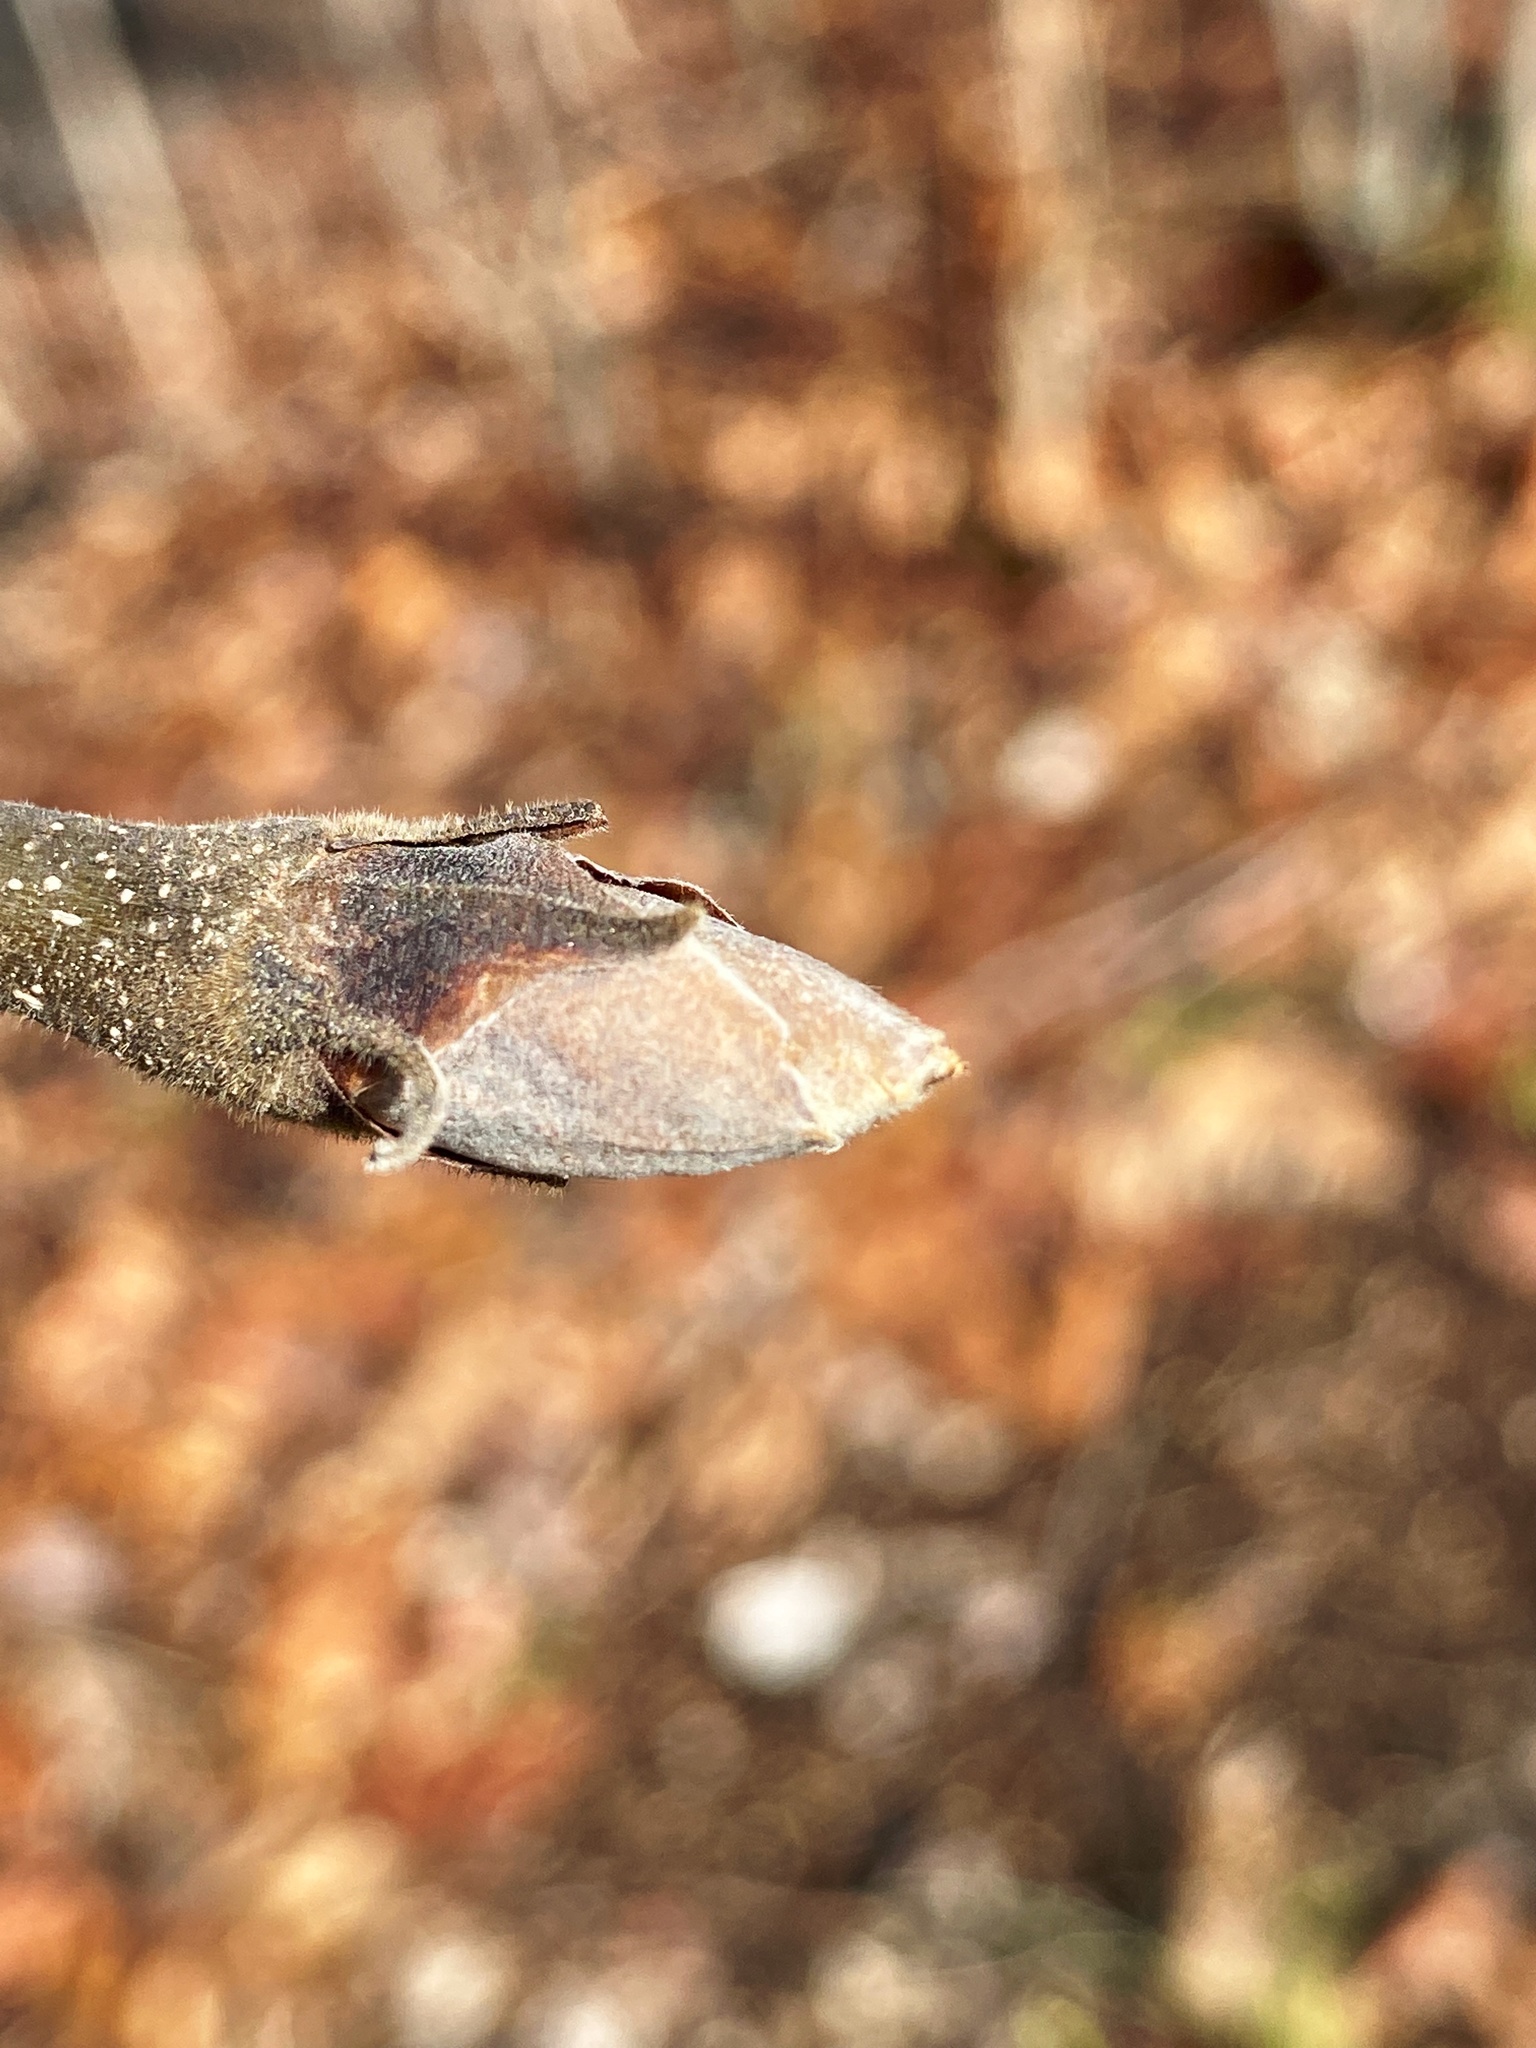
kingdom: Plantae
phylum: Tracheophyta
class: Magnoliopsida
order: Fagales
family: Juglandaceae
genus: Carya
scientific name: Carya ovata
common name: Shagbark hickory
